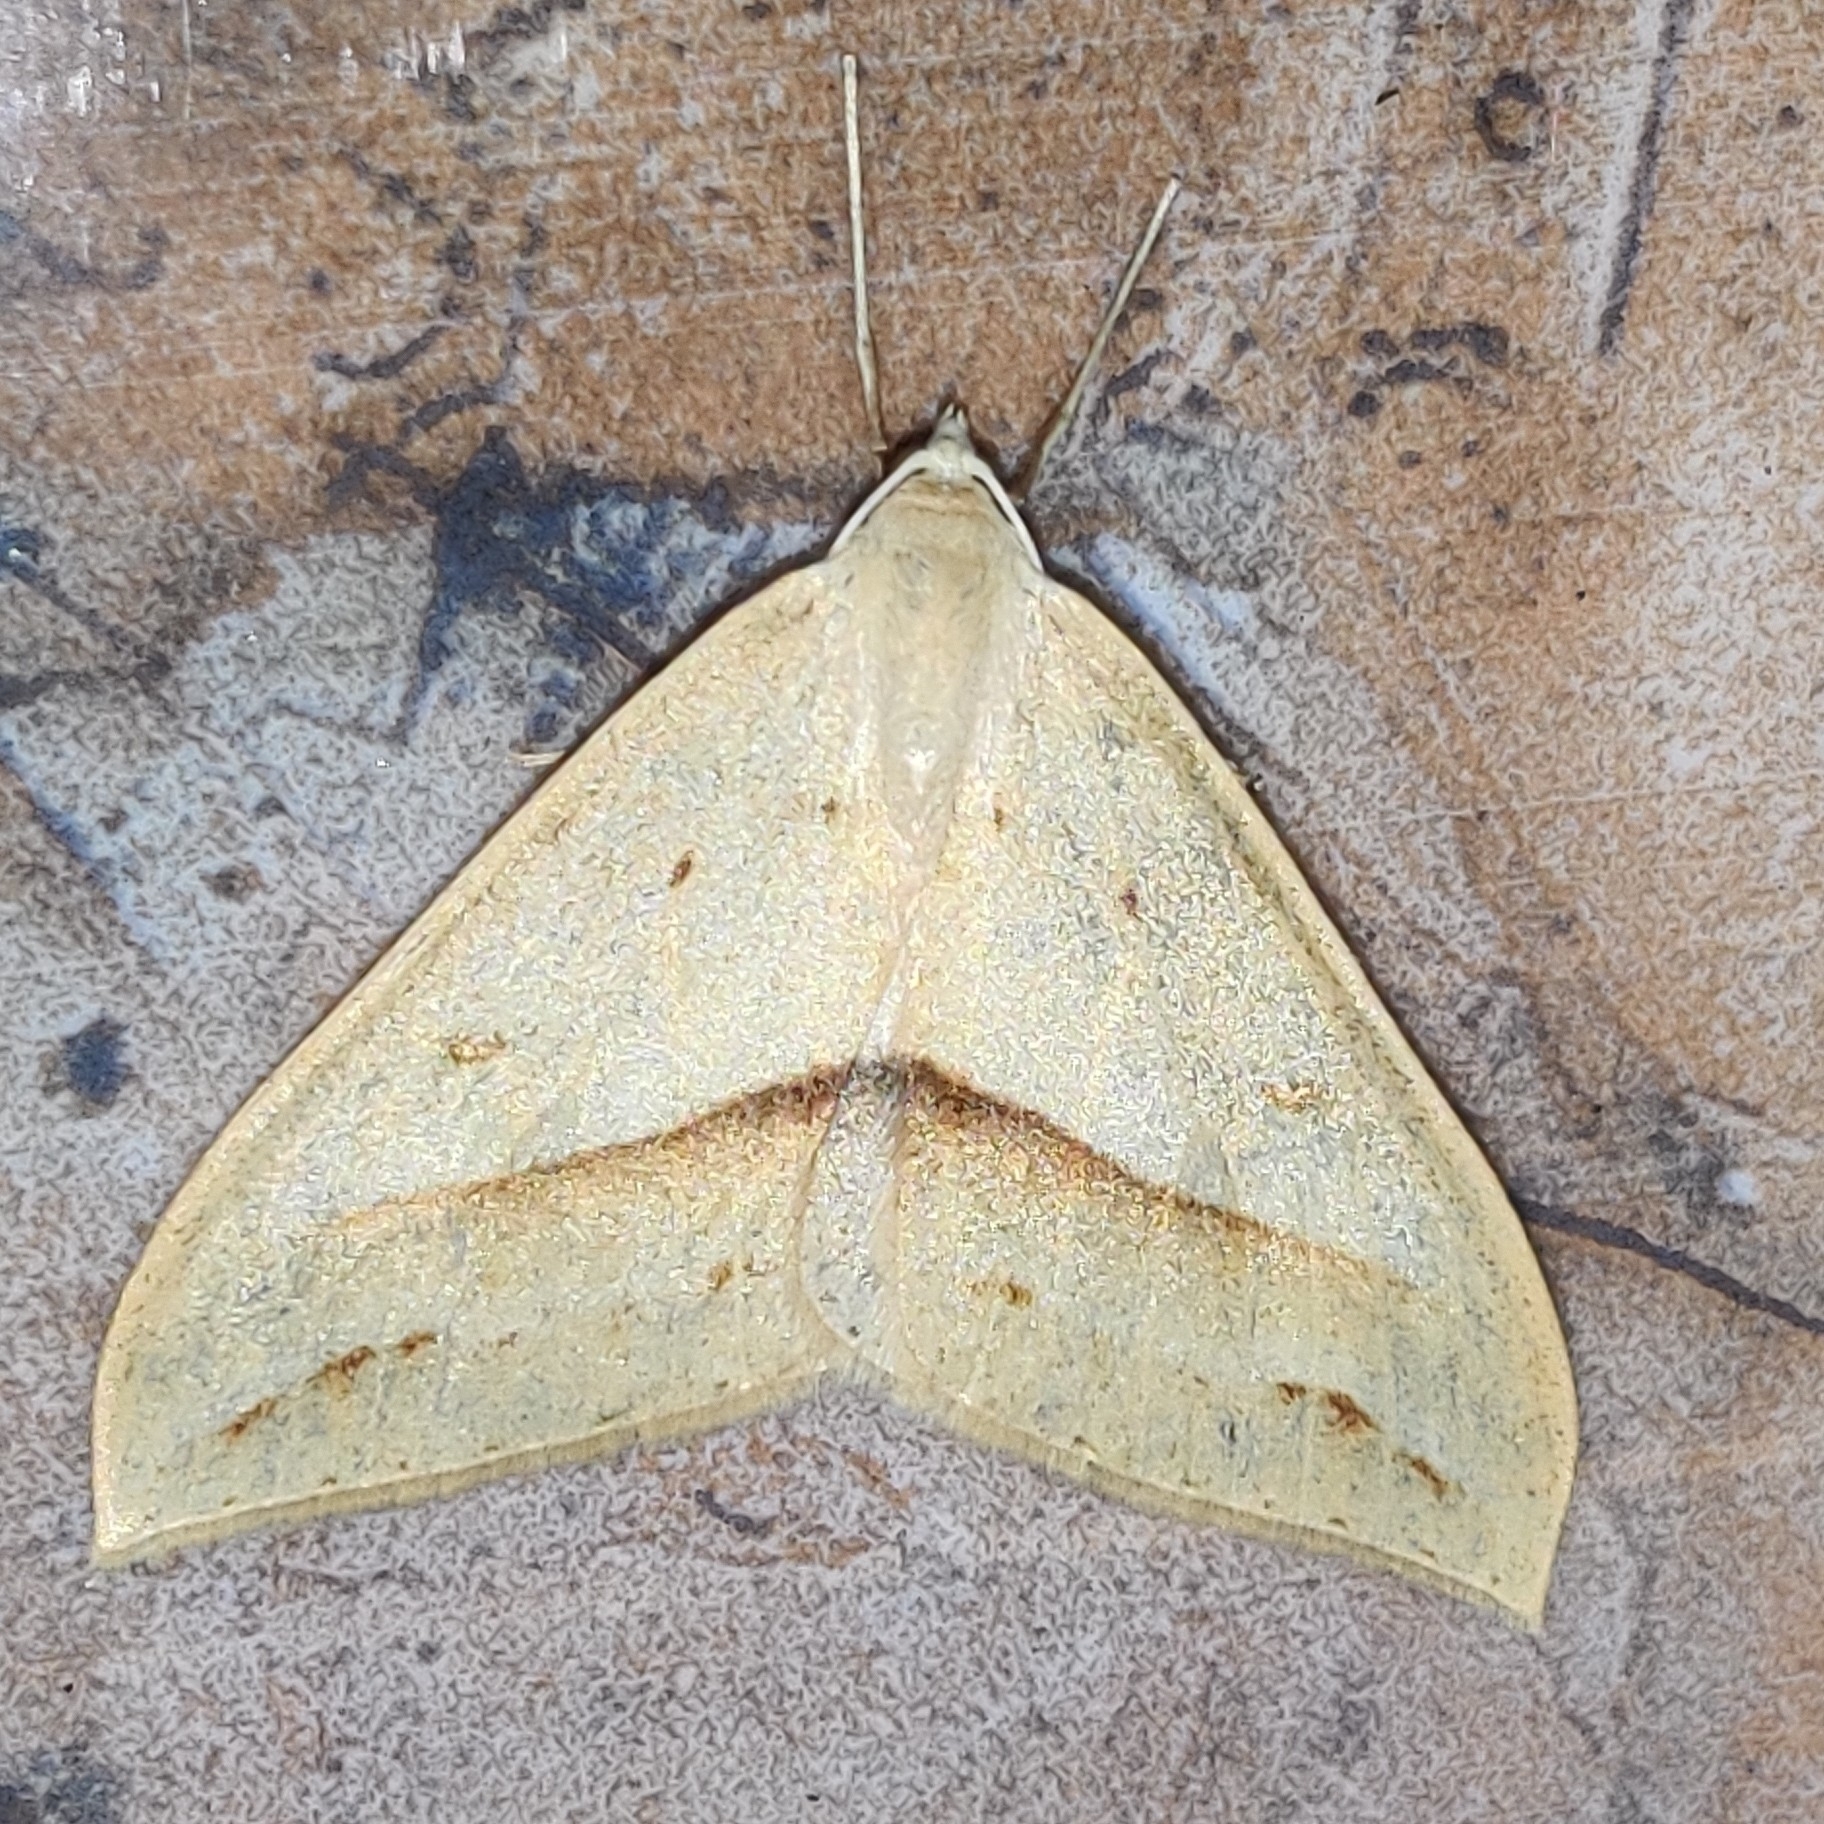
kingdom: Animalia
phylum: Arthropoda
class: Insecta
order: Lepidoptera
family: Geometridae
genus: Loxaspilates
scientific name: Loxaspilates obliquaria
